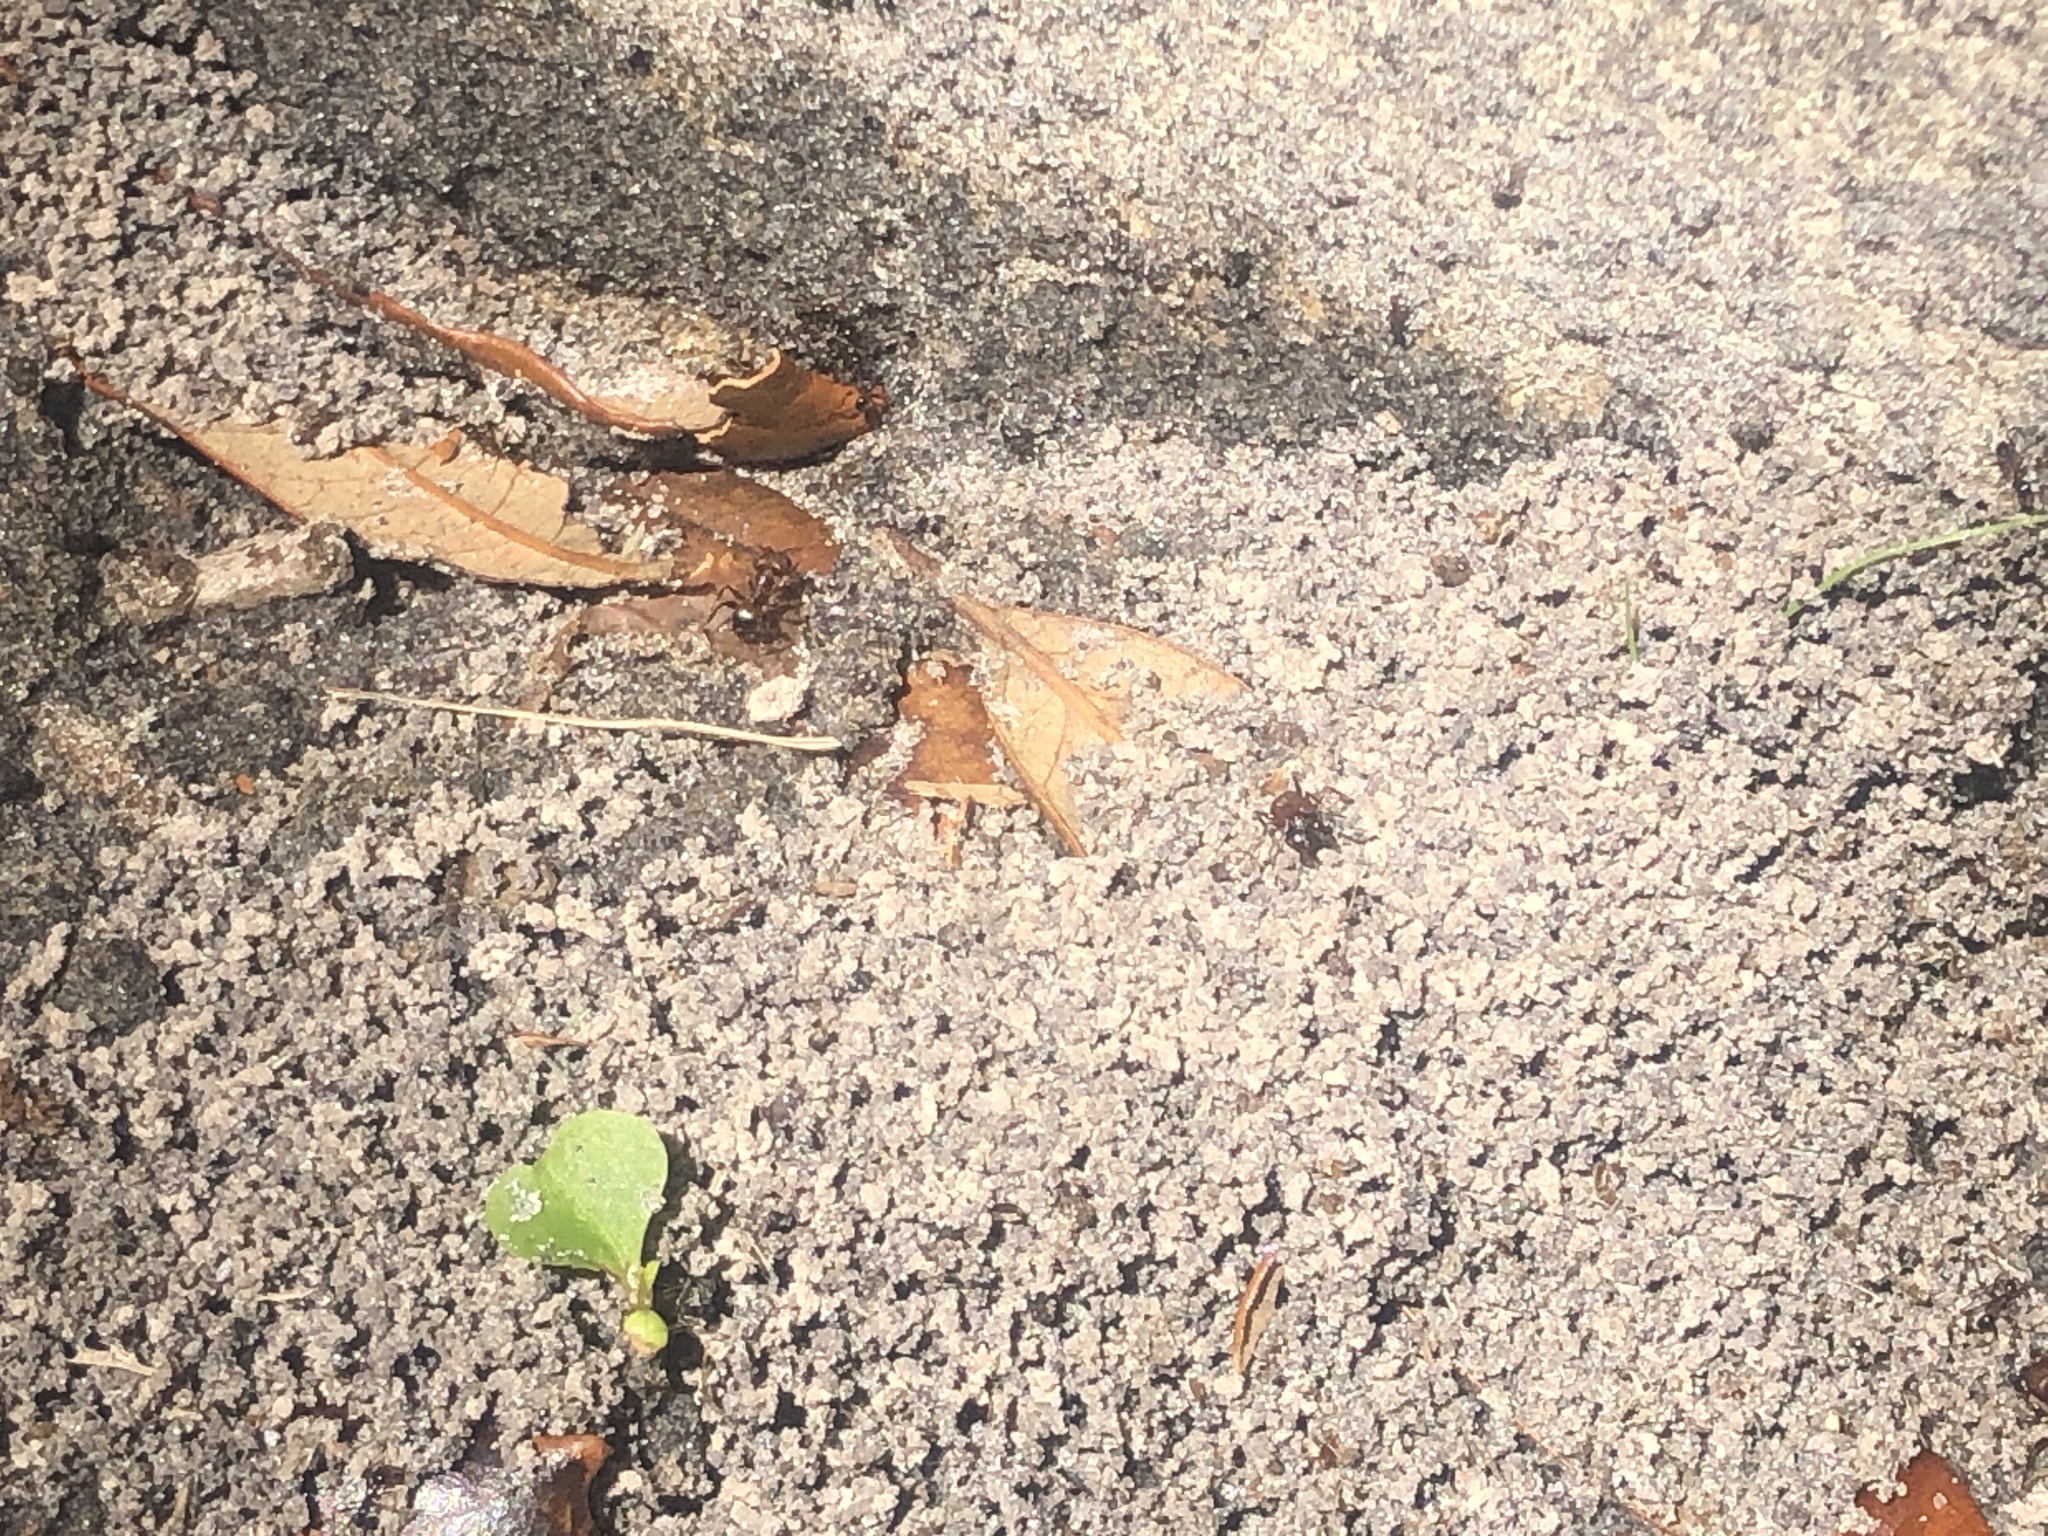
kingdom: Animalia
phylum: Arthropoda
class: Insecta
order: Hymenoptera
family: Formicidae
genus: Pheidole
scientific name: Pheidole obscurithorax
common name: Obscure big-headed ant
